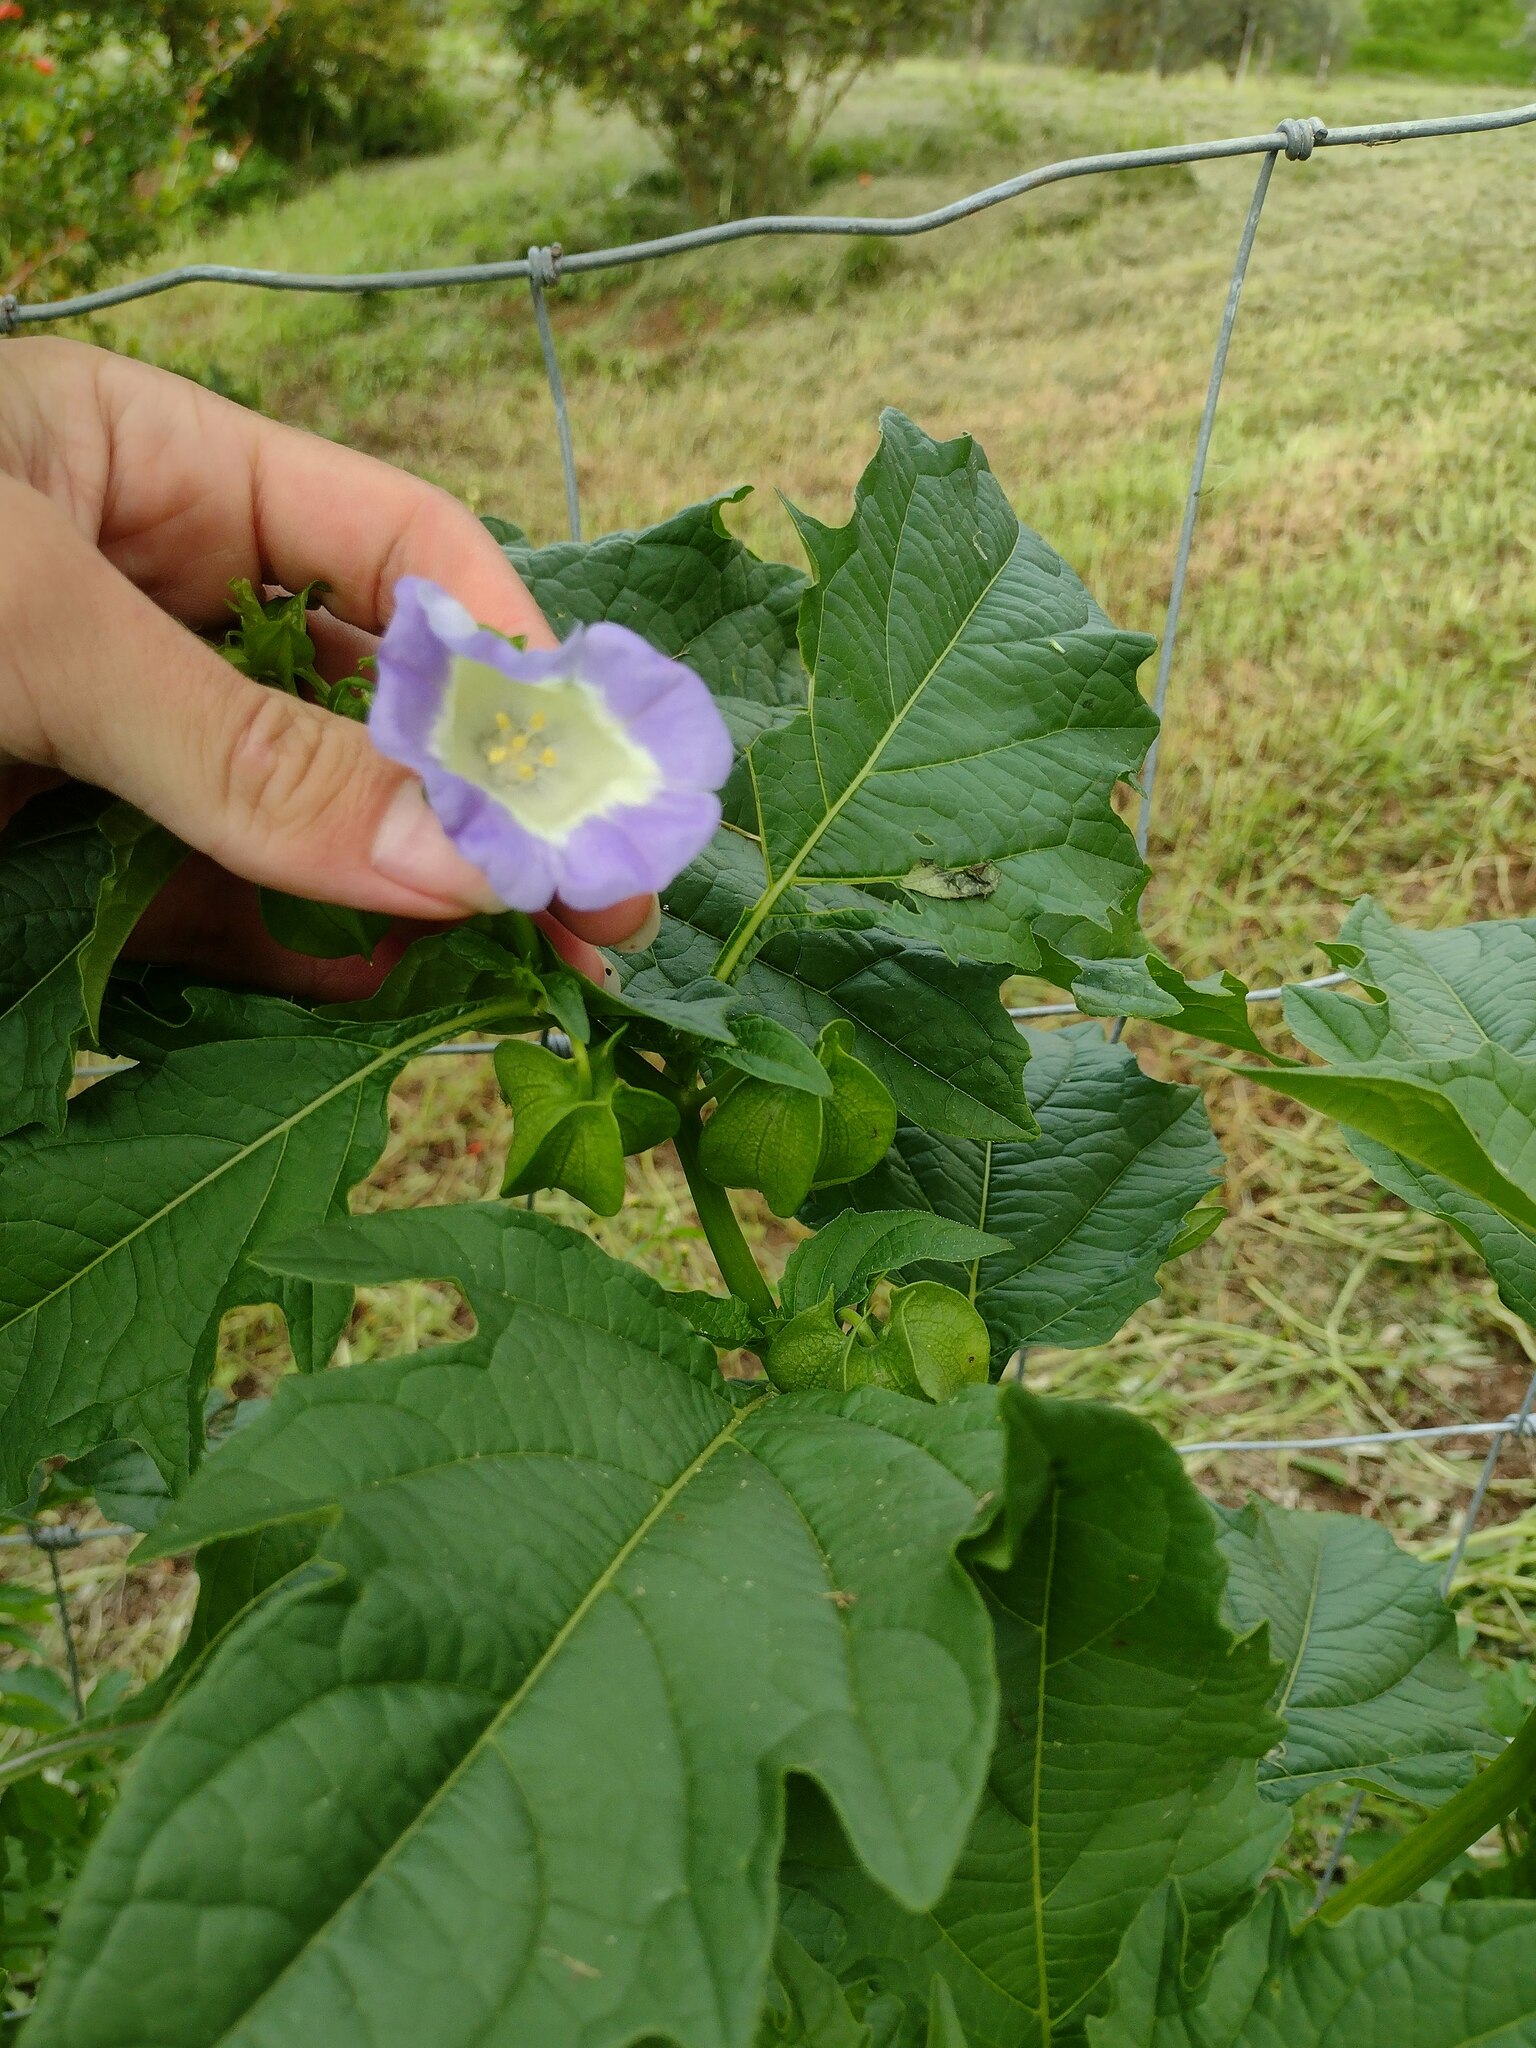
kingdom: Plantae
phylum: Tracheophyta
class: Magnoliopsida
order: Solanales
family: Solanaceae
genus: Nicandra
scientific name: Nicandra physalodes
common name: Apple-of-peru
